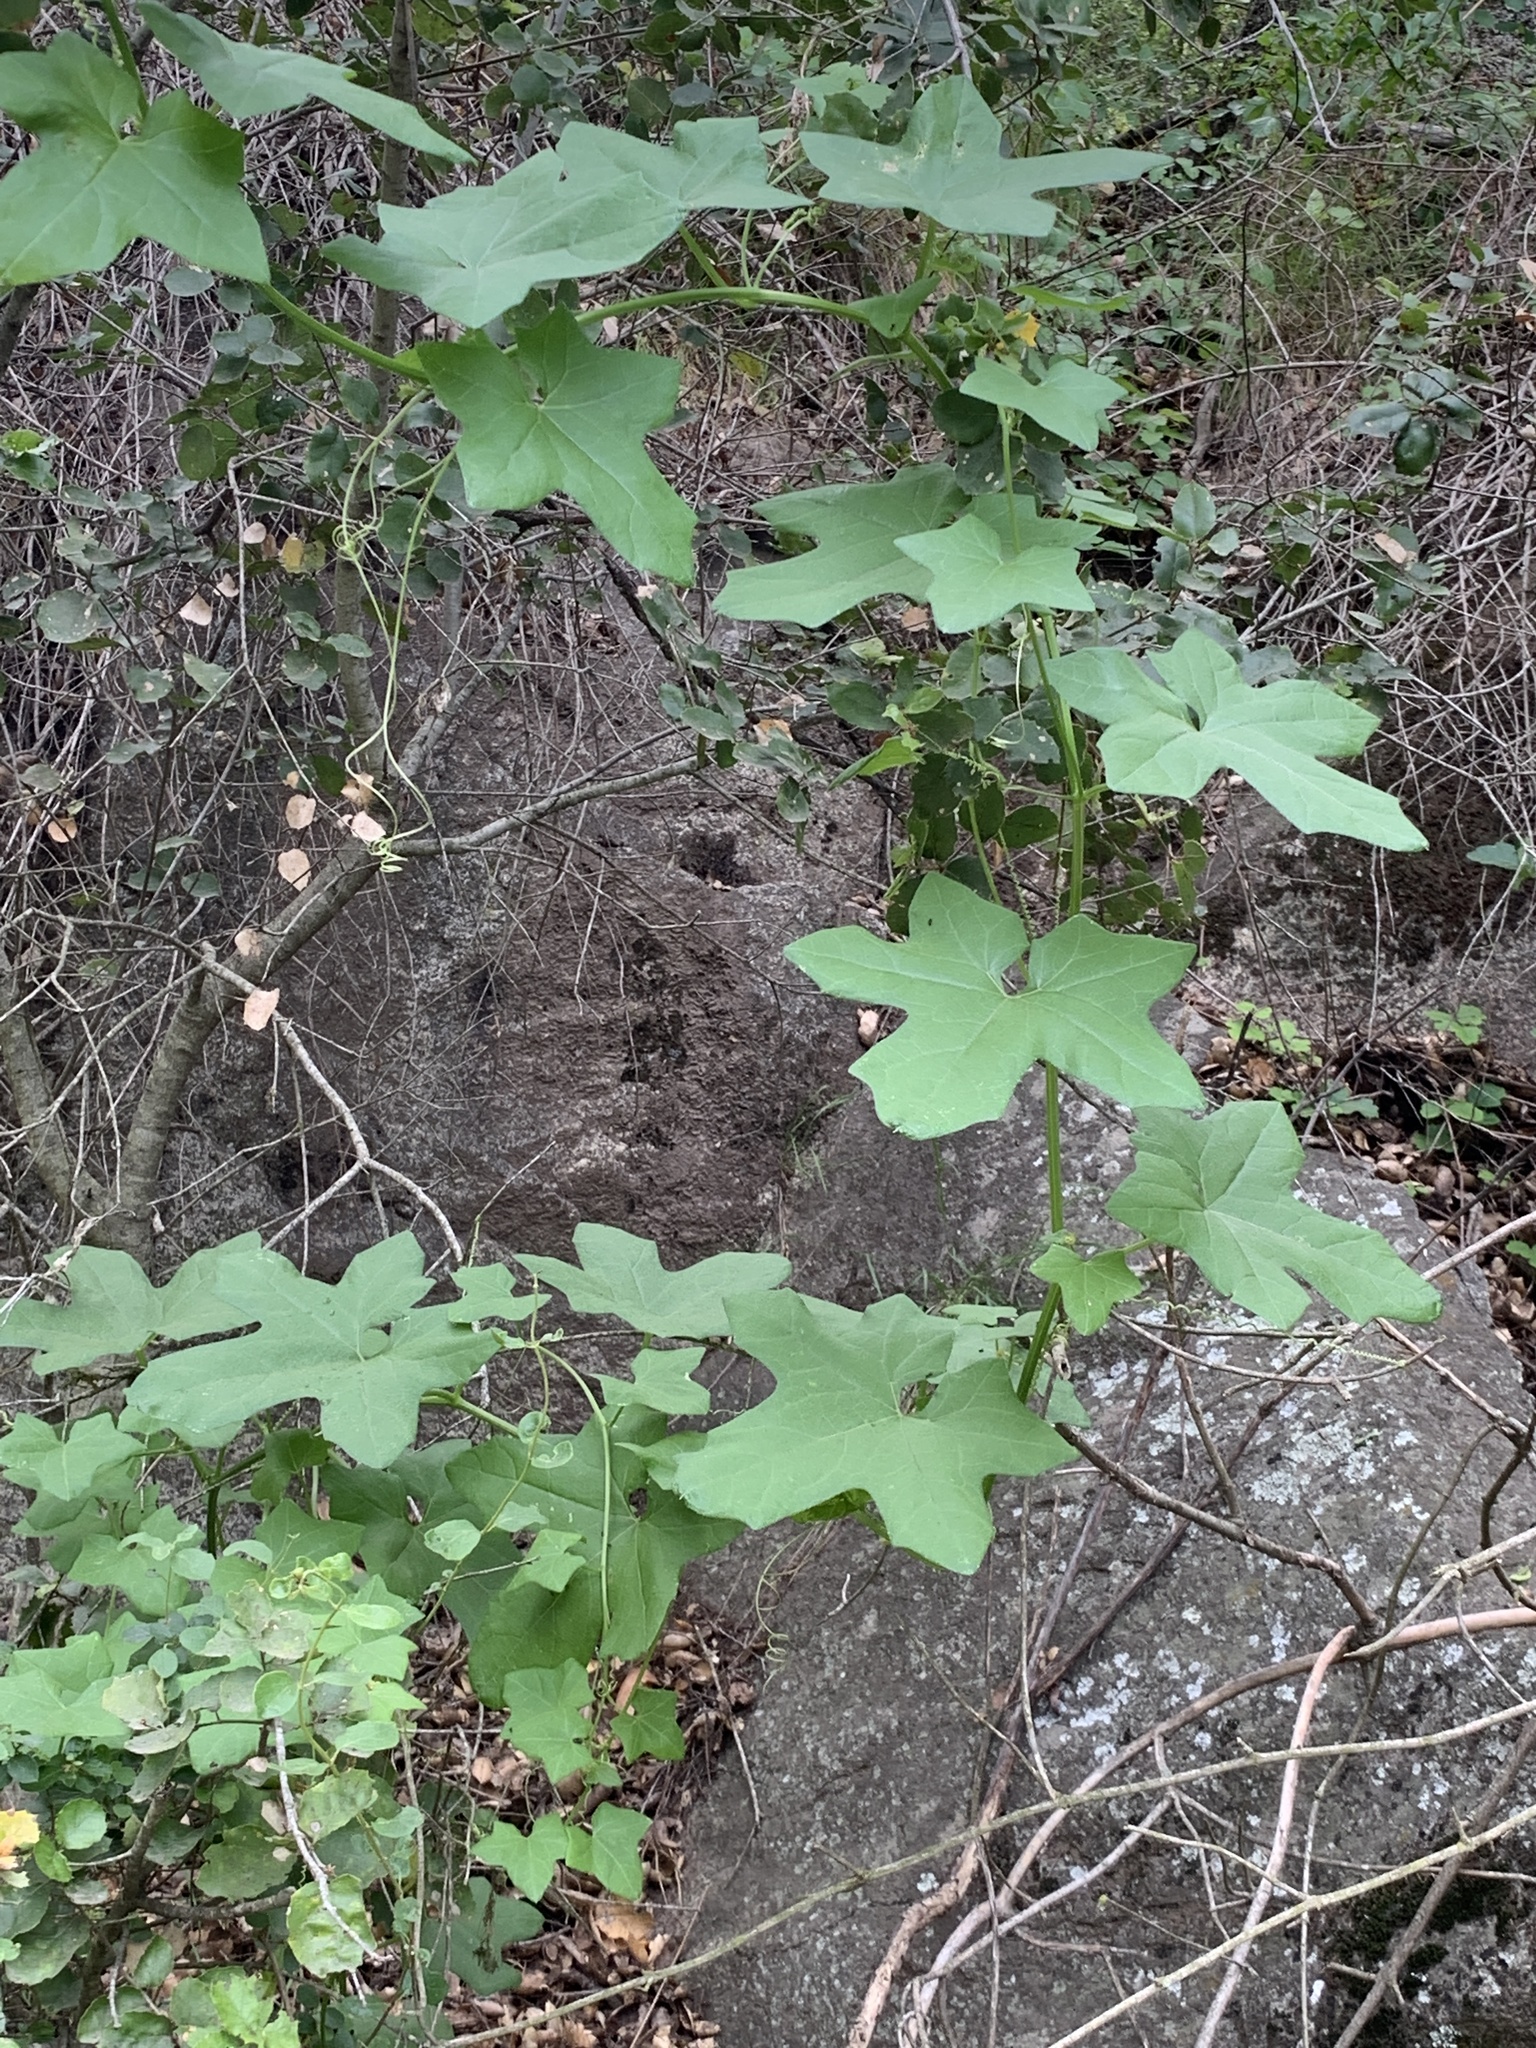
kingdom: Plantae
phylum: Tracheophyta
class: Magnoliopsida
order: Cucurbitales
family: Cucurbitaceae
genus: Marah
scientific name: Marah macrocarpa
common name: Cucamonga manroot
